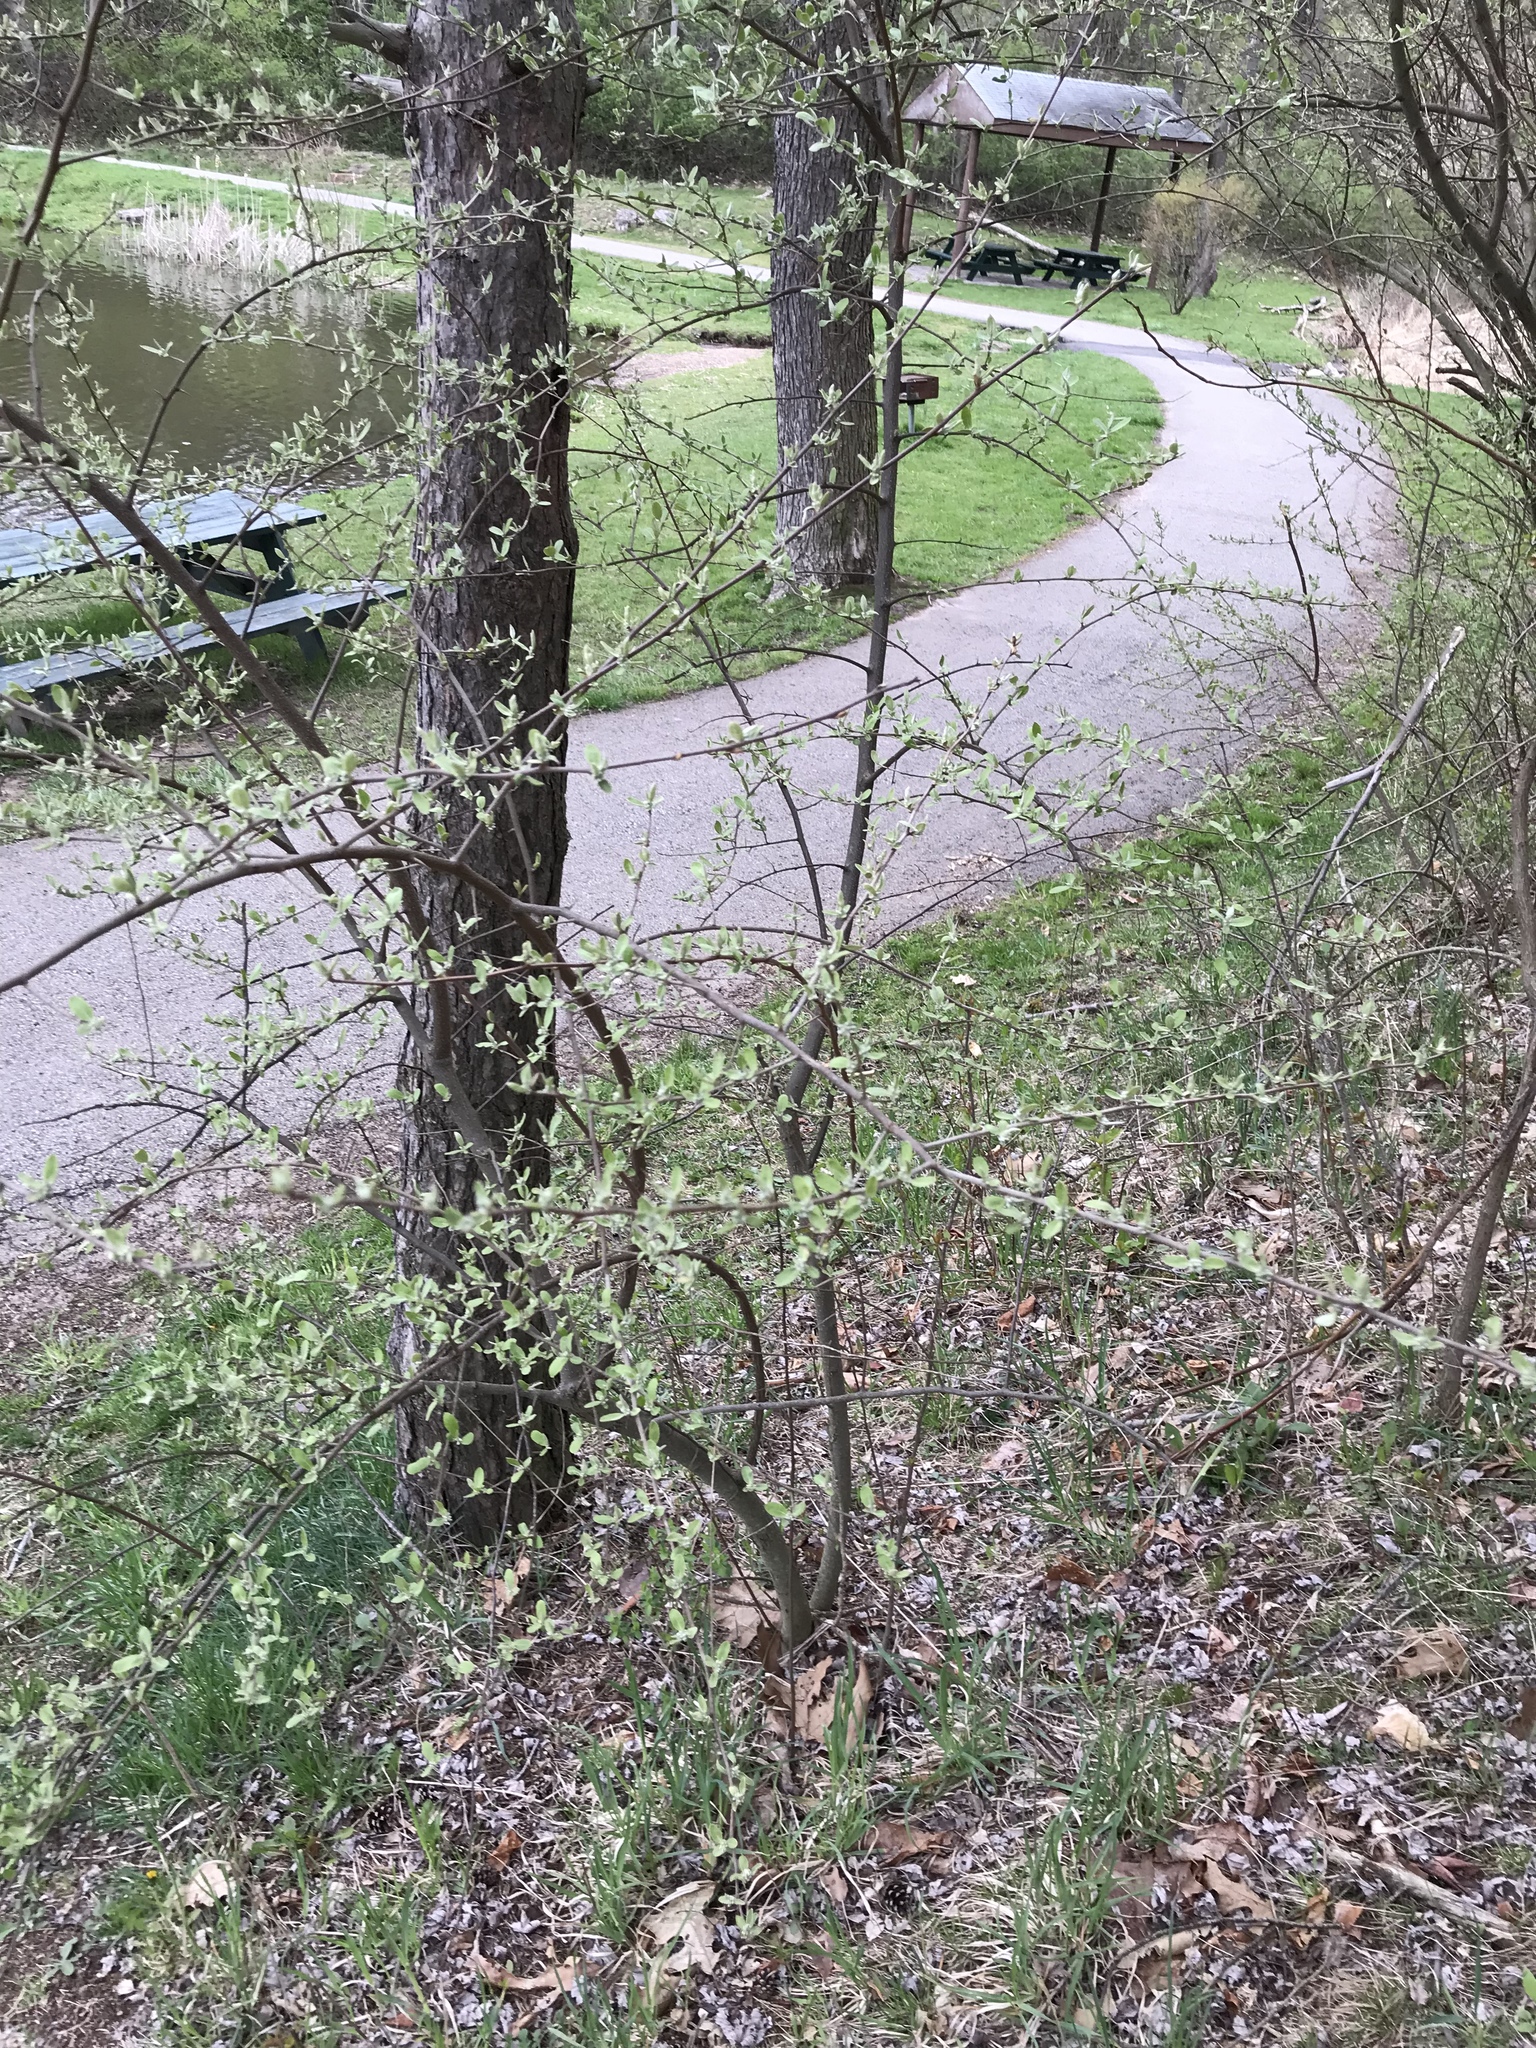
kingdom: Plantae
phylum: Tracheophyta
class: Magnoliopsida
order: Rosales
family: Elaeagnaceae
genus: Elaeagnus
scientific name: Elaeagnus umbellata
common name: Autumn olive
